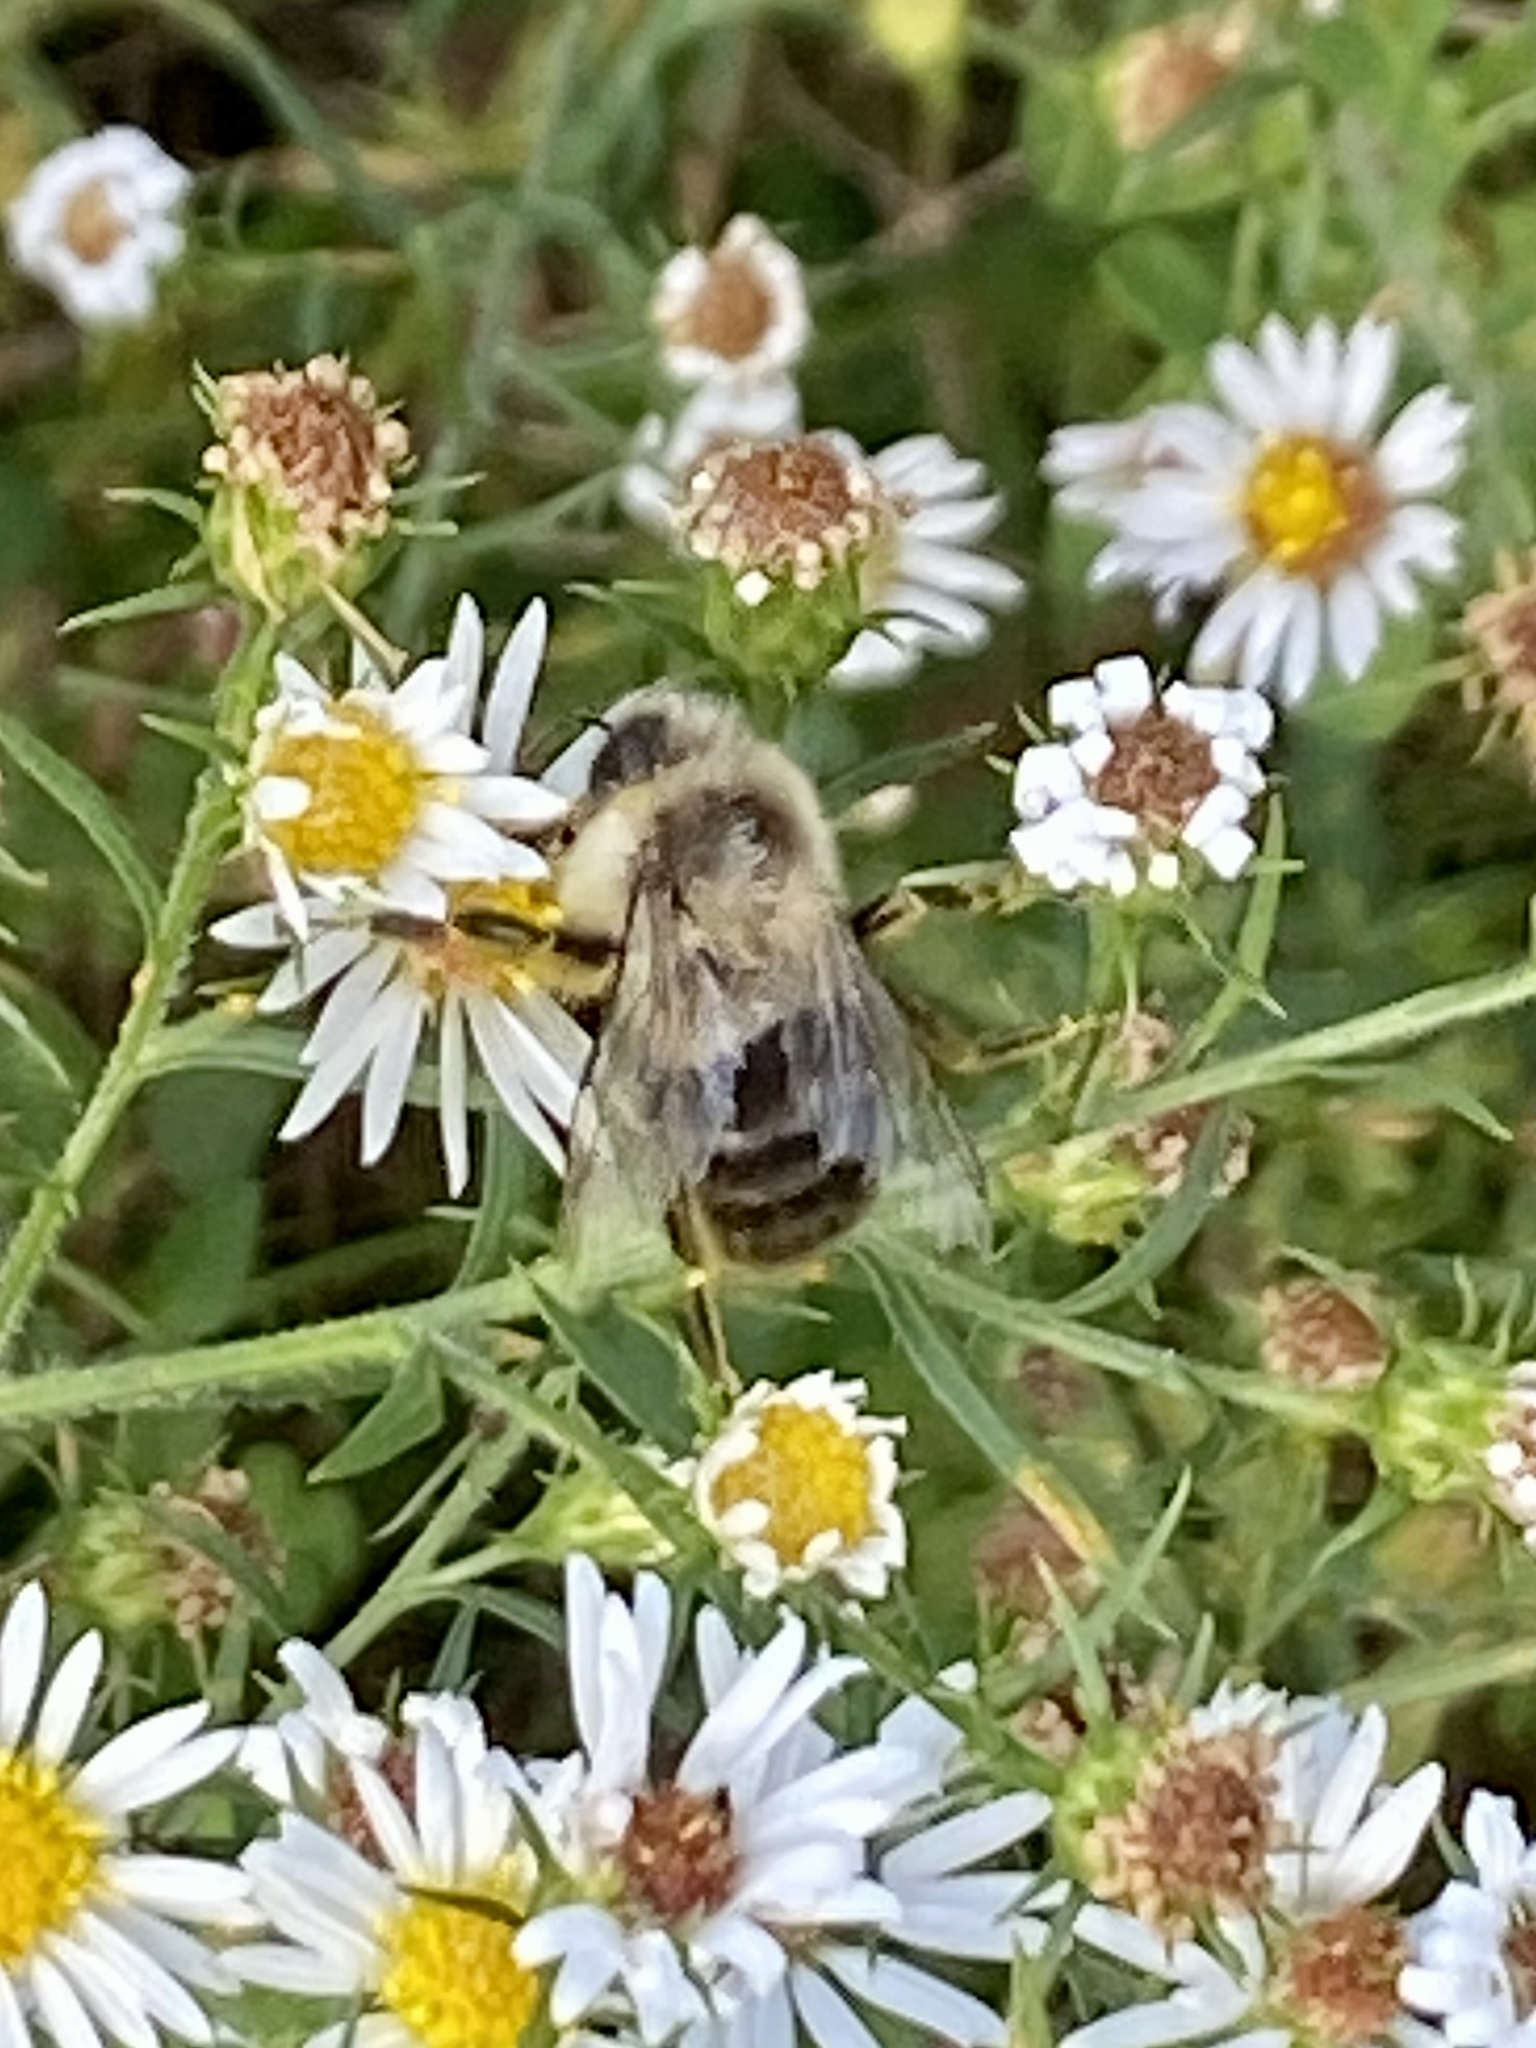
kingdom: Animalia
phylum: Arthropoda
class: Insecta
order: Hymenoptera
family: Apidae
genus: Bombus
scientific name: Bombus impatiens
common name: Common eastern bumble bee
